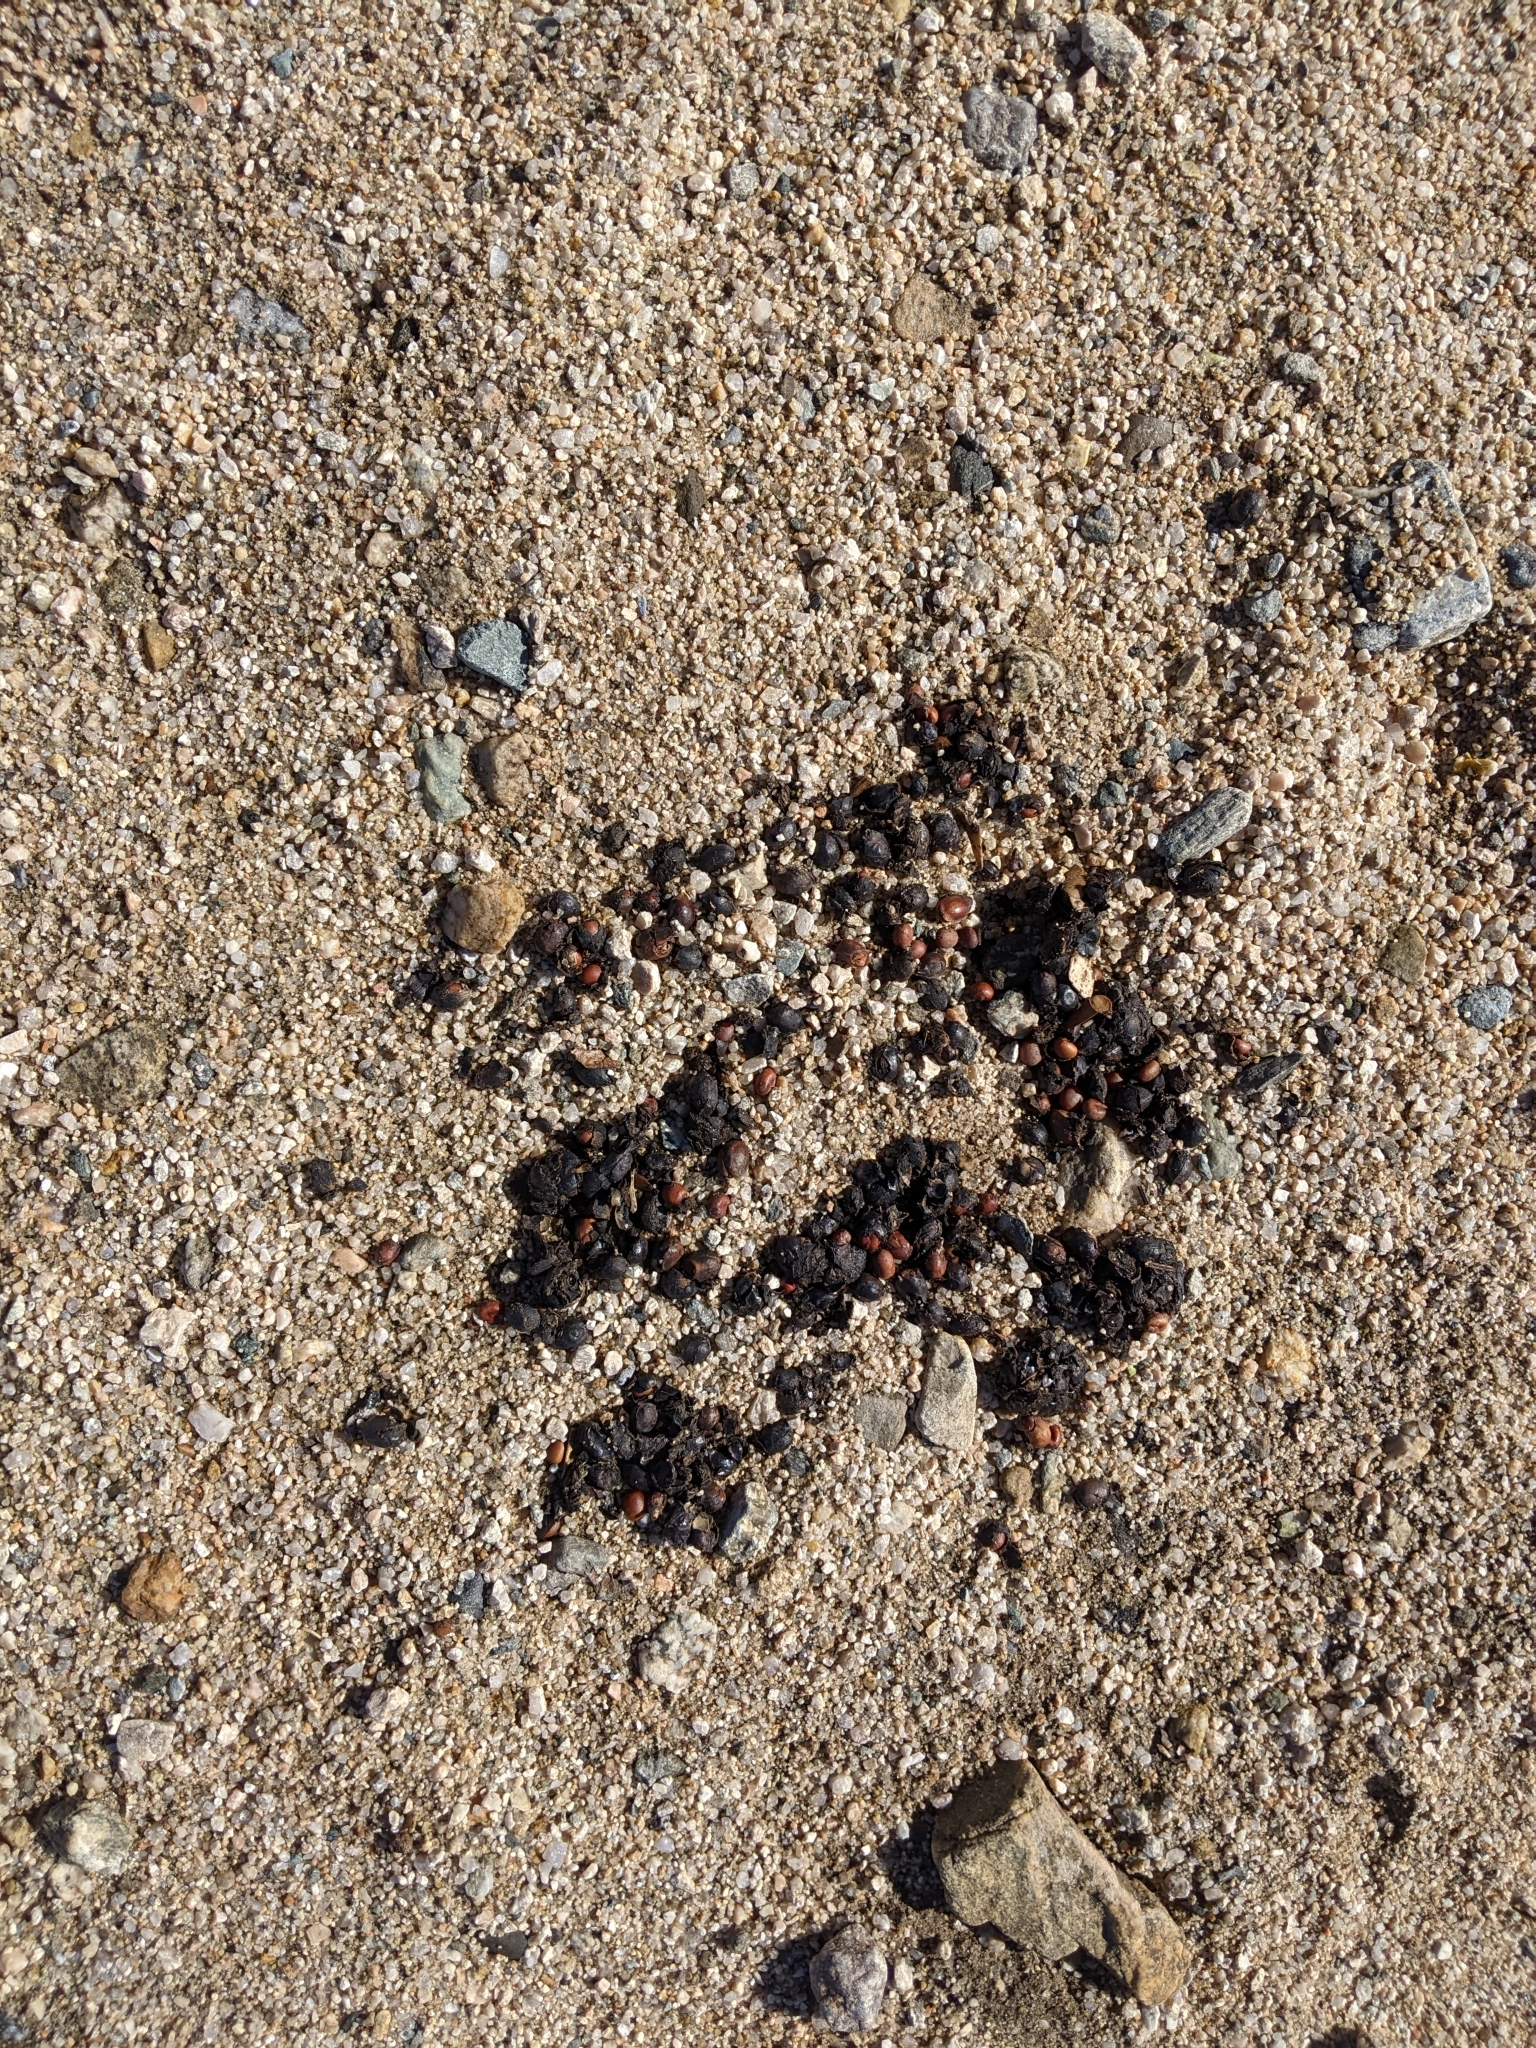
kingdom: Animalia
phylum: Chordata
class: Mammalia
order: Carnivora
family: Canidae
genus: Canis
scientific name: Canis latrans
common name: Coyote
